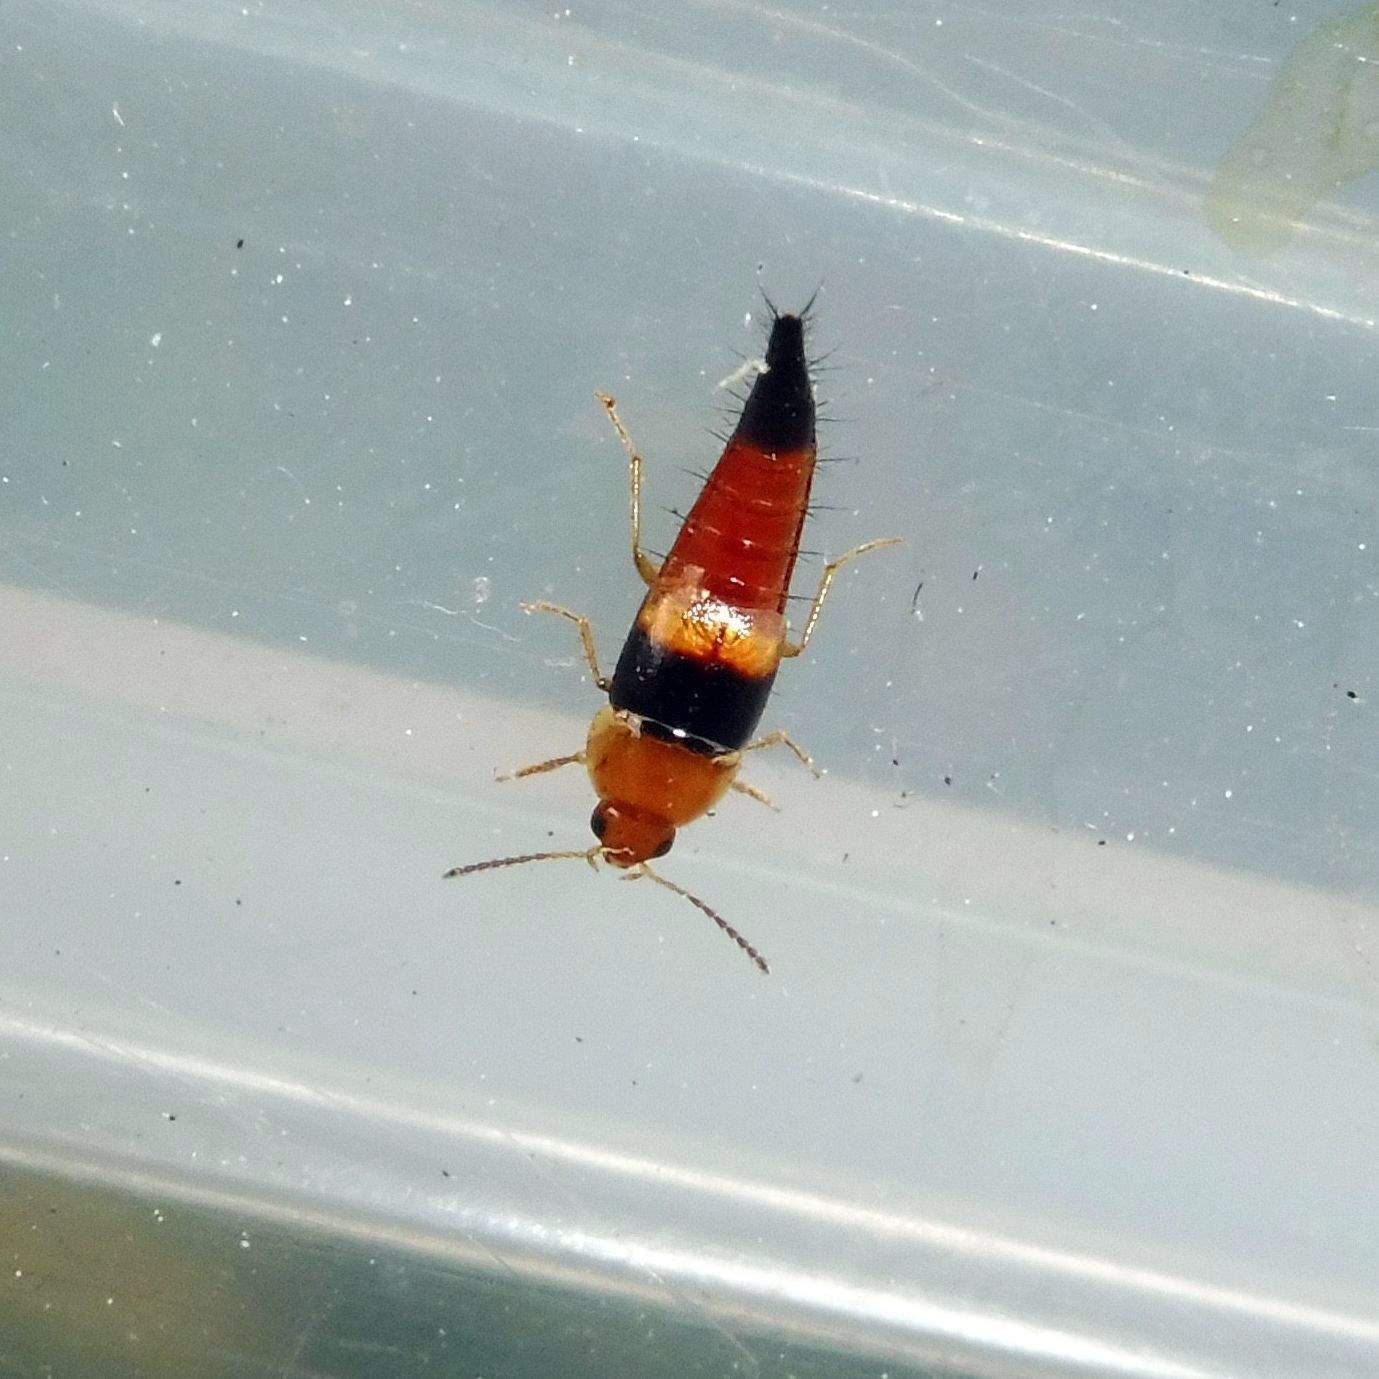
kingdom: Animalia
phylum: Arthropoda
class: Insecta
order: Coleoptera
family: Staphylinidae
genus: Tachyporus
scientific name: Tachyporus obtusus
